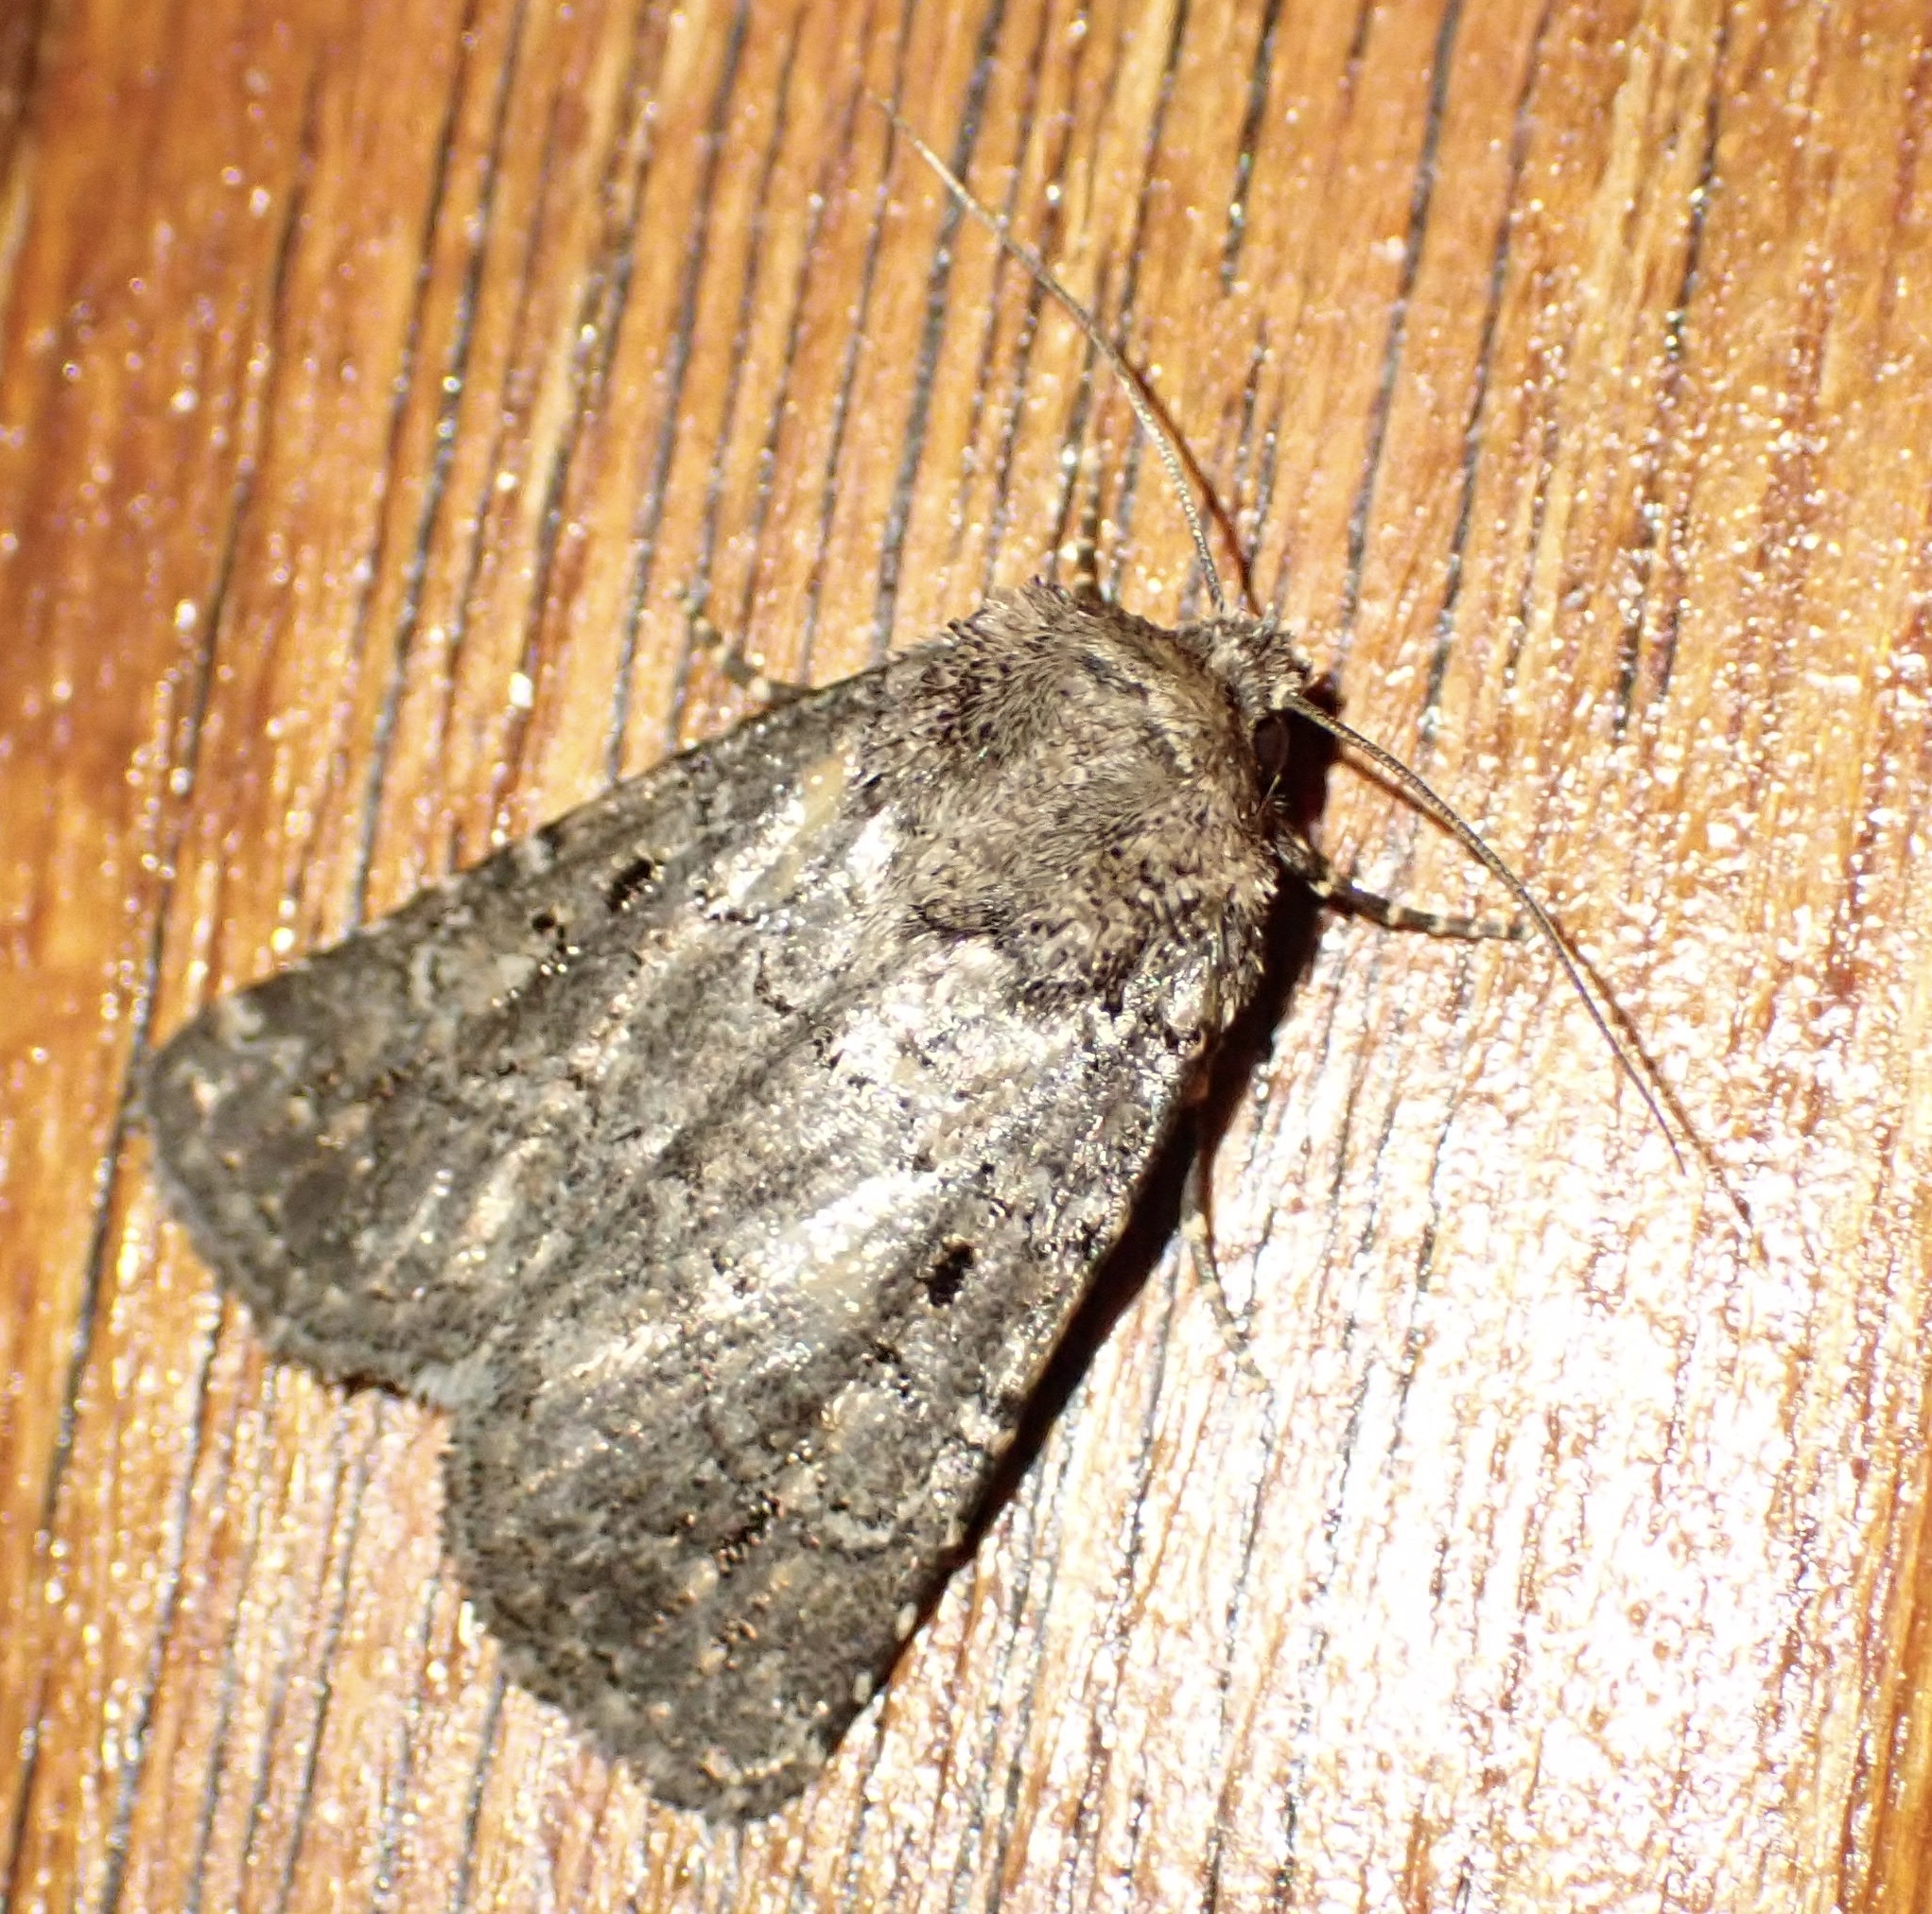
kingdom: Animalia
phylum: Arthropoda
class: Insecta
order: Lepidoptera
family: Noctuidae
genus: Condica
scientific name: Condica capensis
